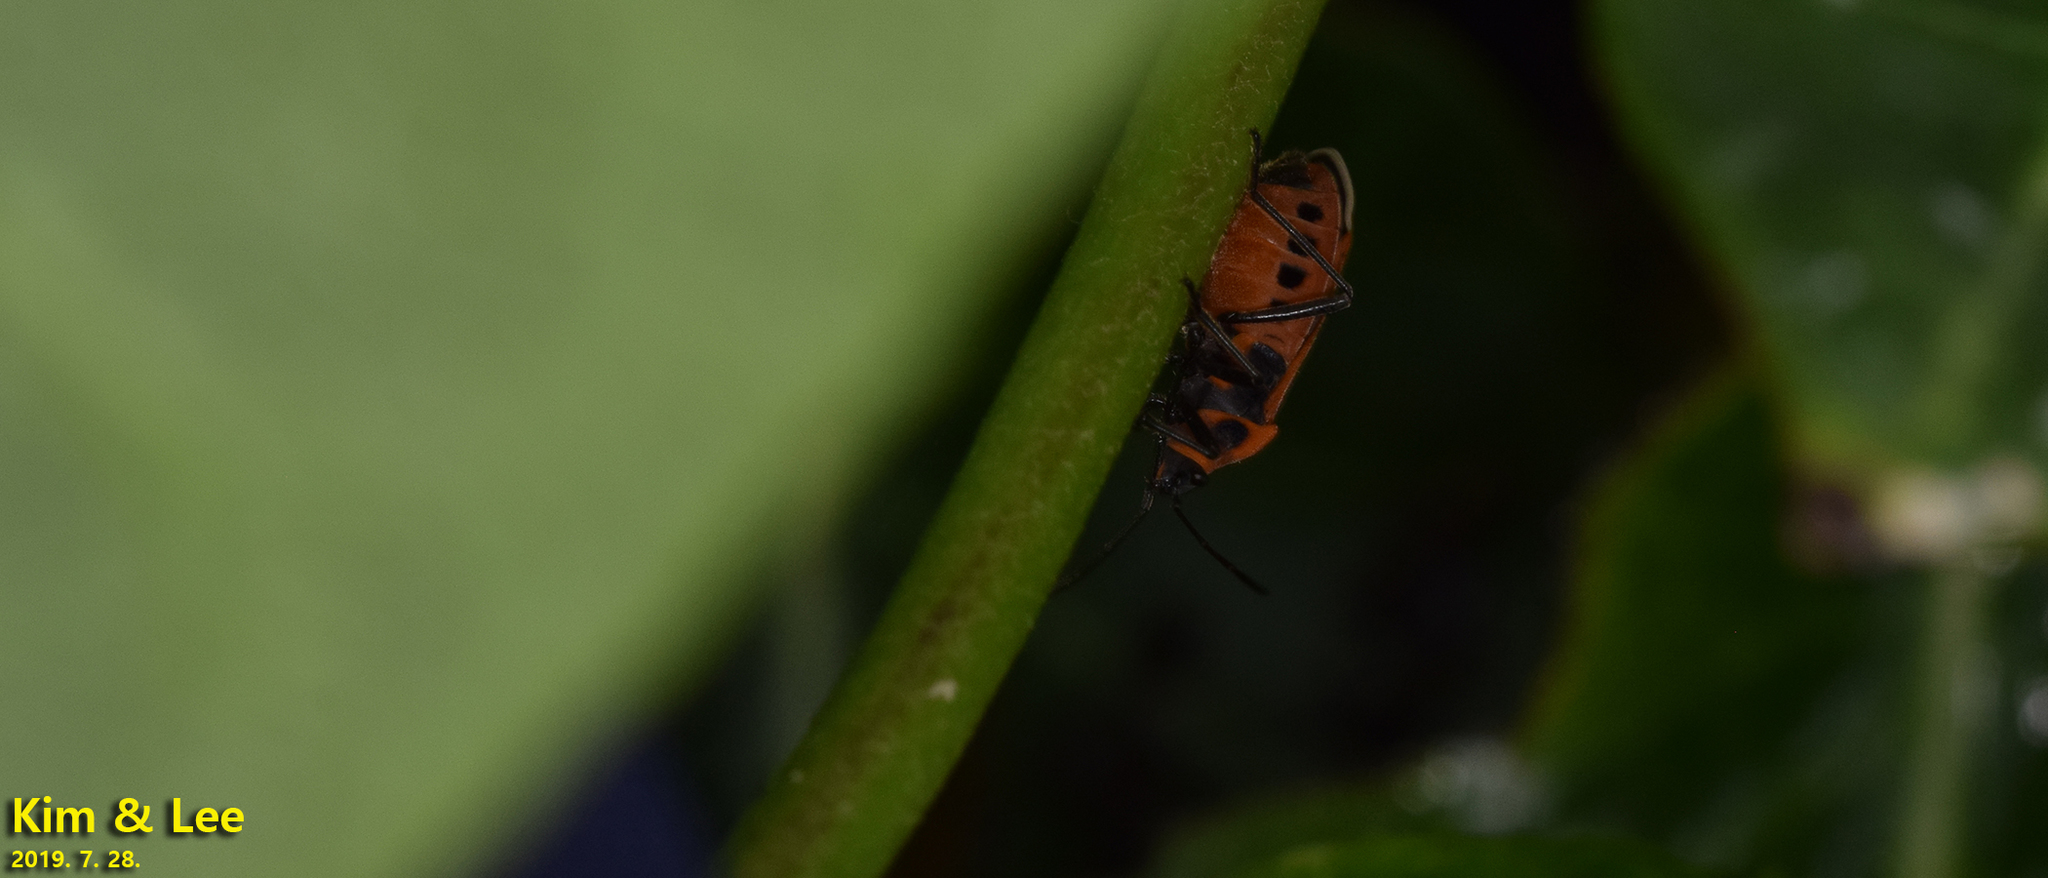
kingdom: Animalia
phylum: Arthropoda
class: Insecta
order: Hemiptera
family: Lygaeidae
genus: Tropidothorax
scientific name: Tropidothorax cruciger
